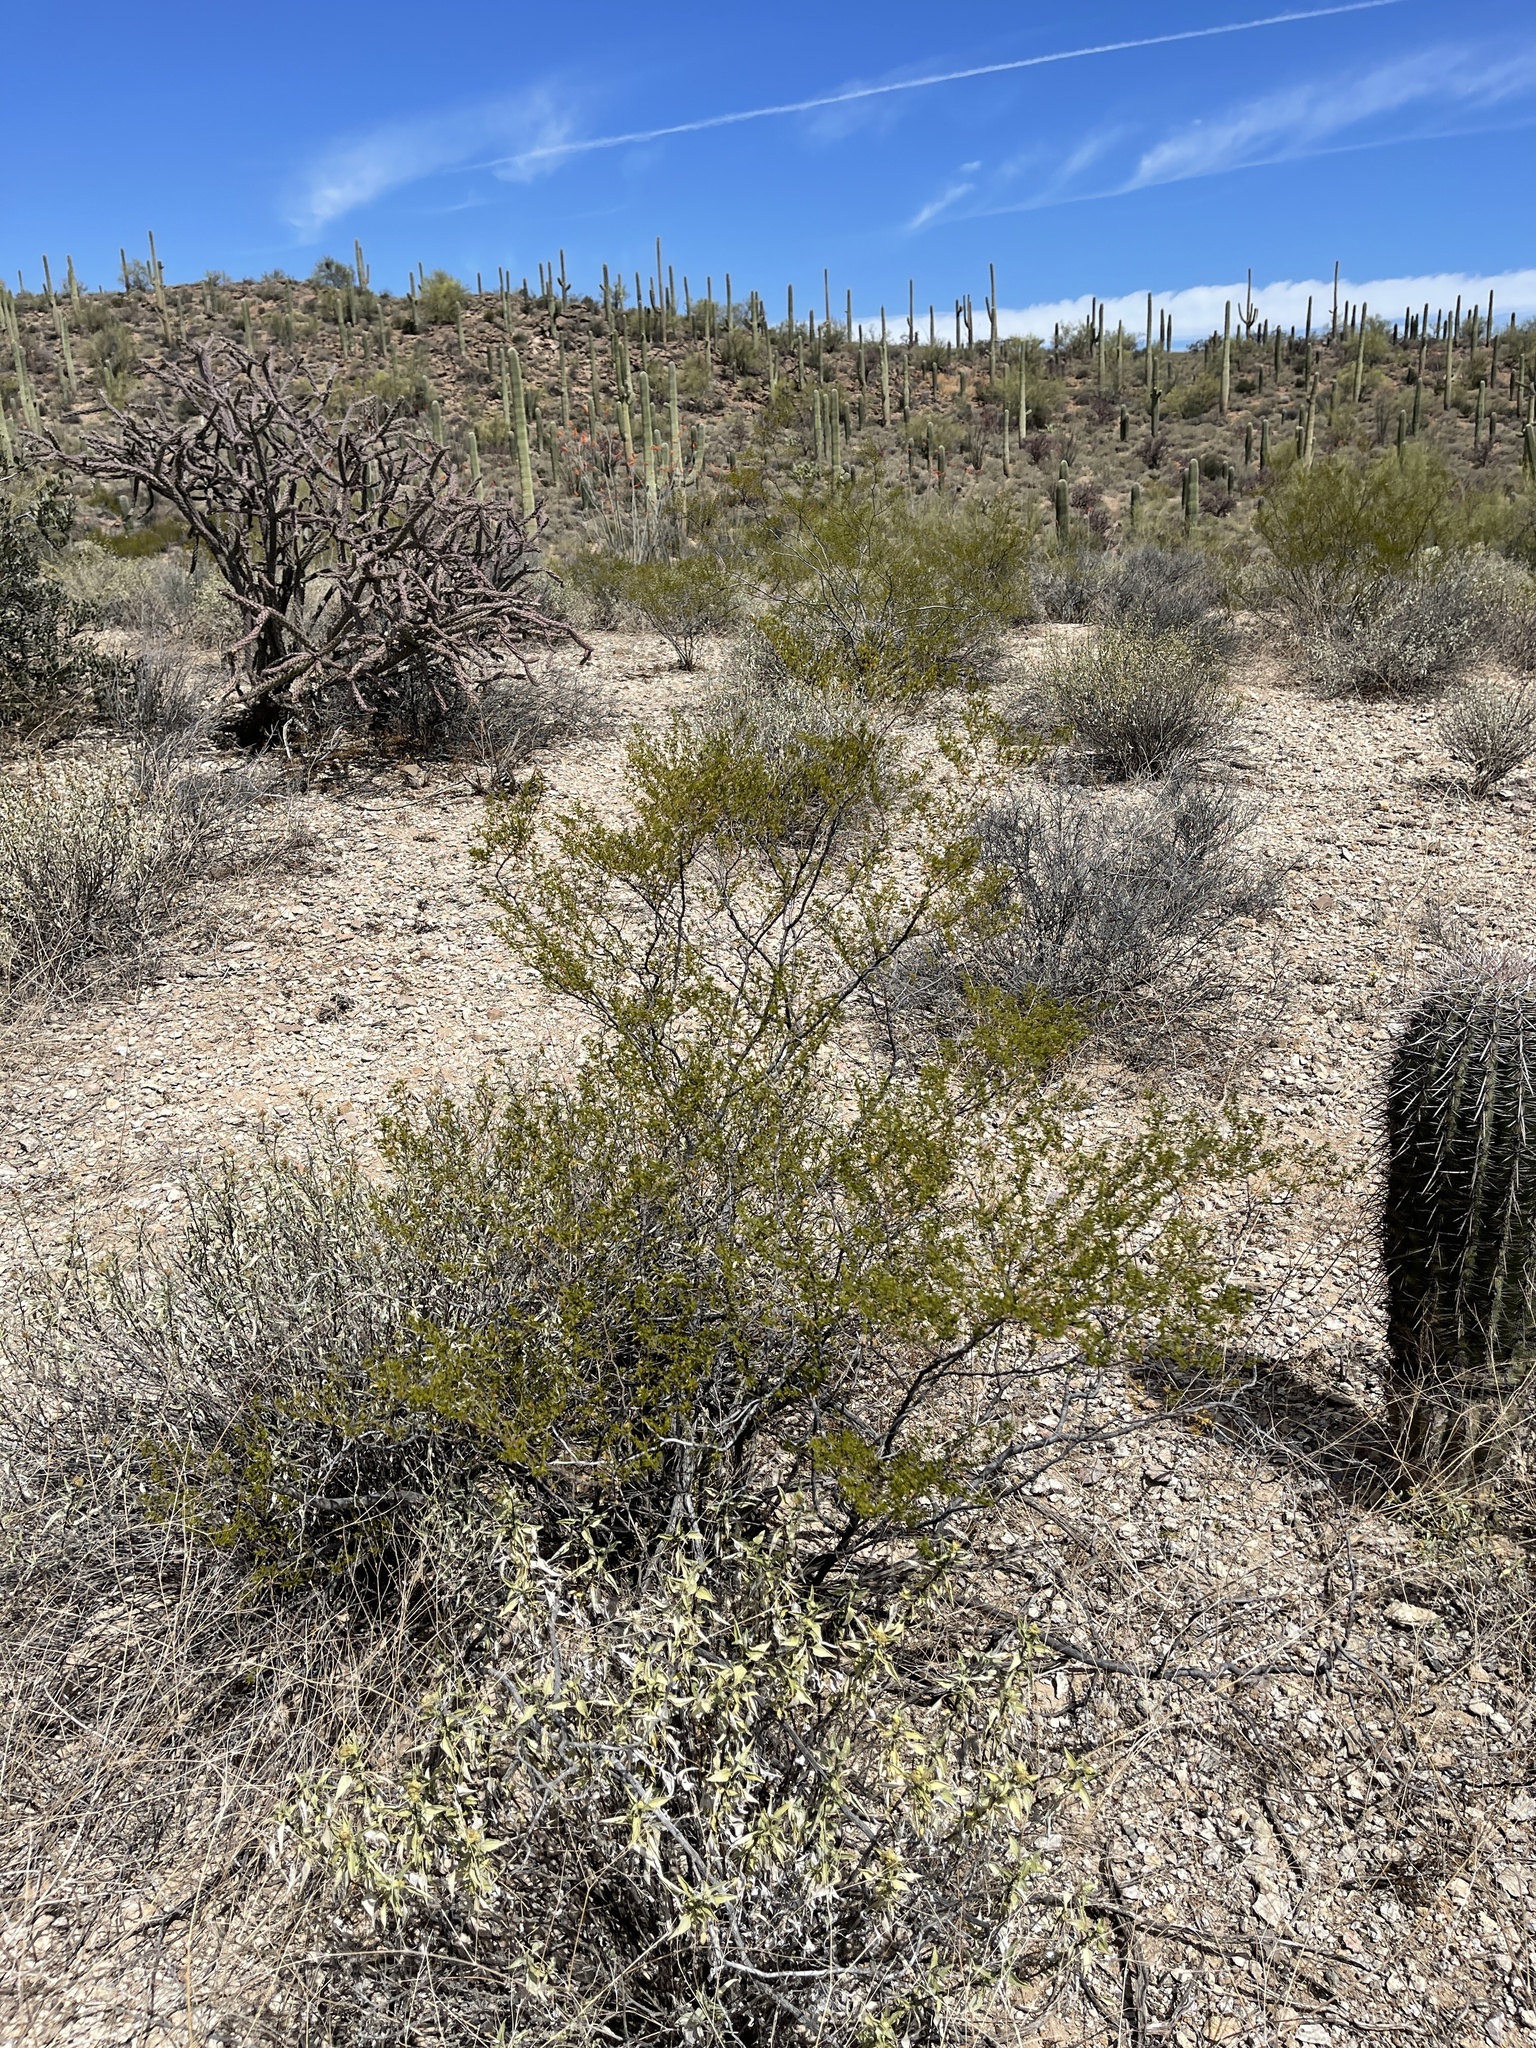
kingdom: Plantae
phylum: Tracheophyta
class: Magnoliopsida
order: Zygophyllales
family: Zygophyllaceae
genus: Larrea
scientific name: Larrea tridentata
